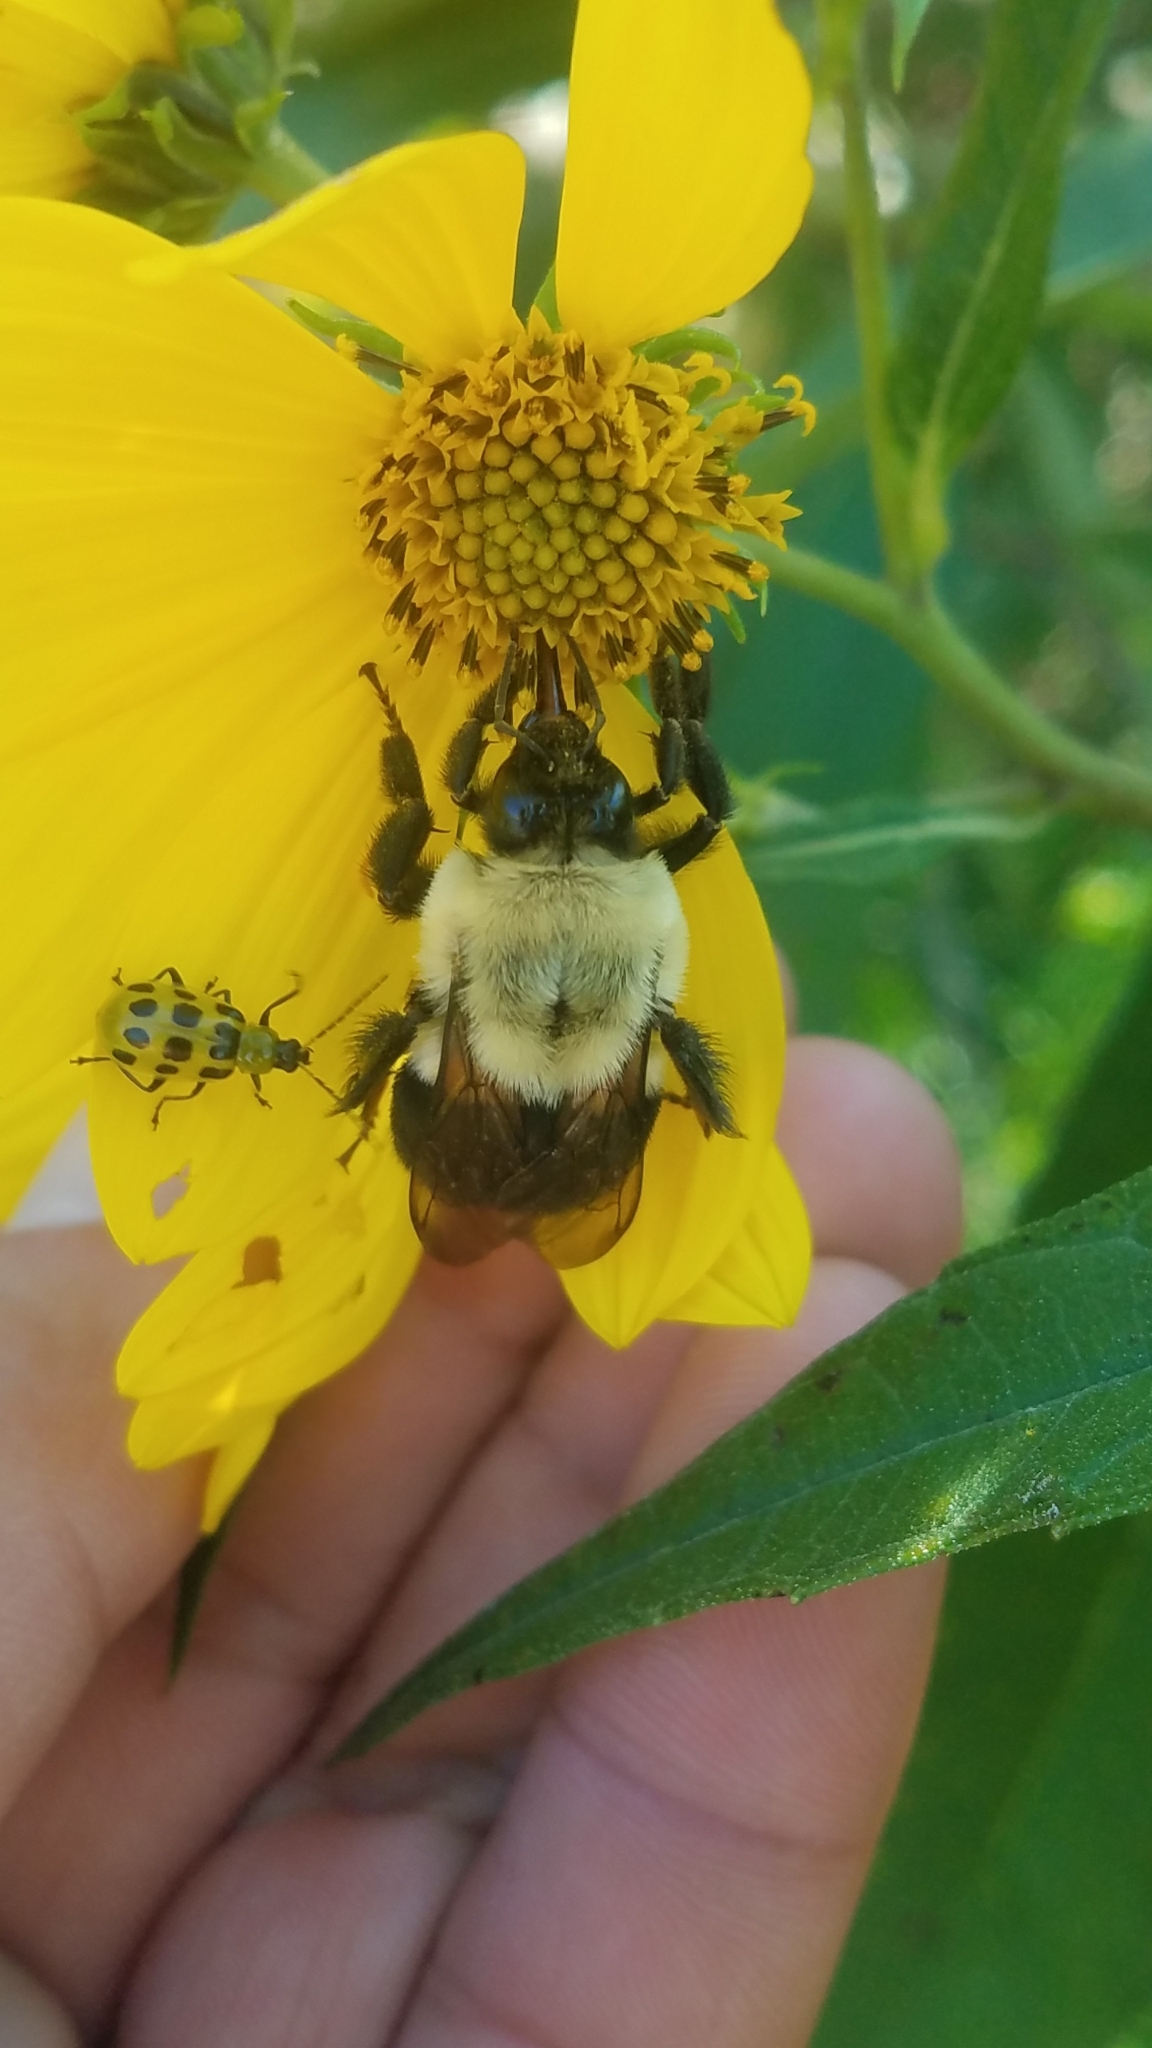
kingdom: Animalia
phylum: Arthropoda
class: Insecta
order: Hymenoptera
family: Apidae
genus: Bombus
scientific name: Bombus impatiens
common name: Common eastern bumble bee
